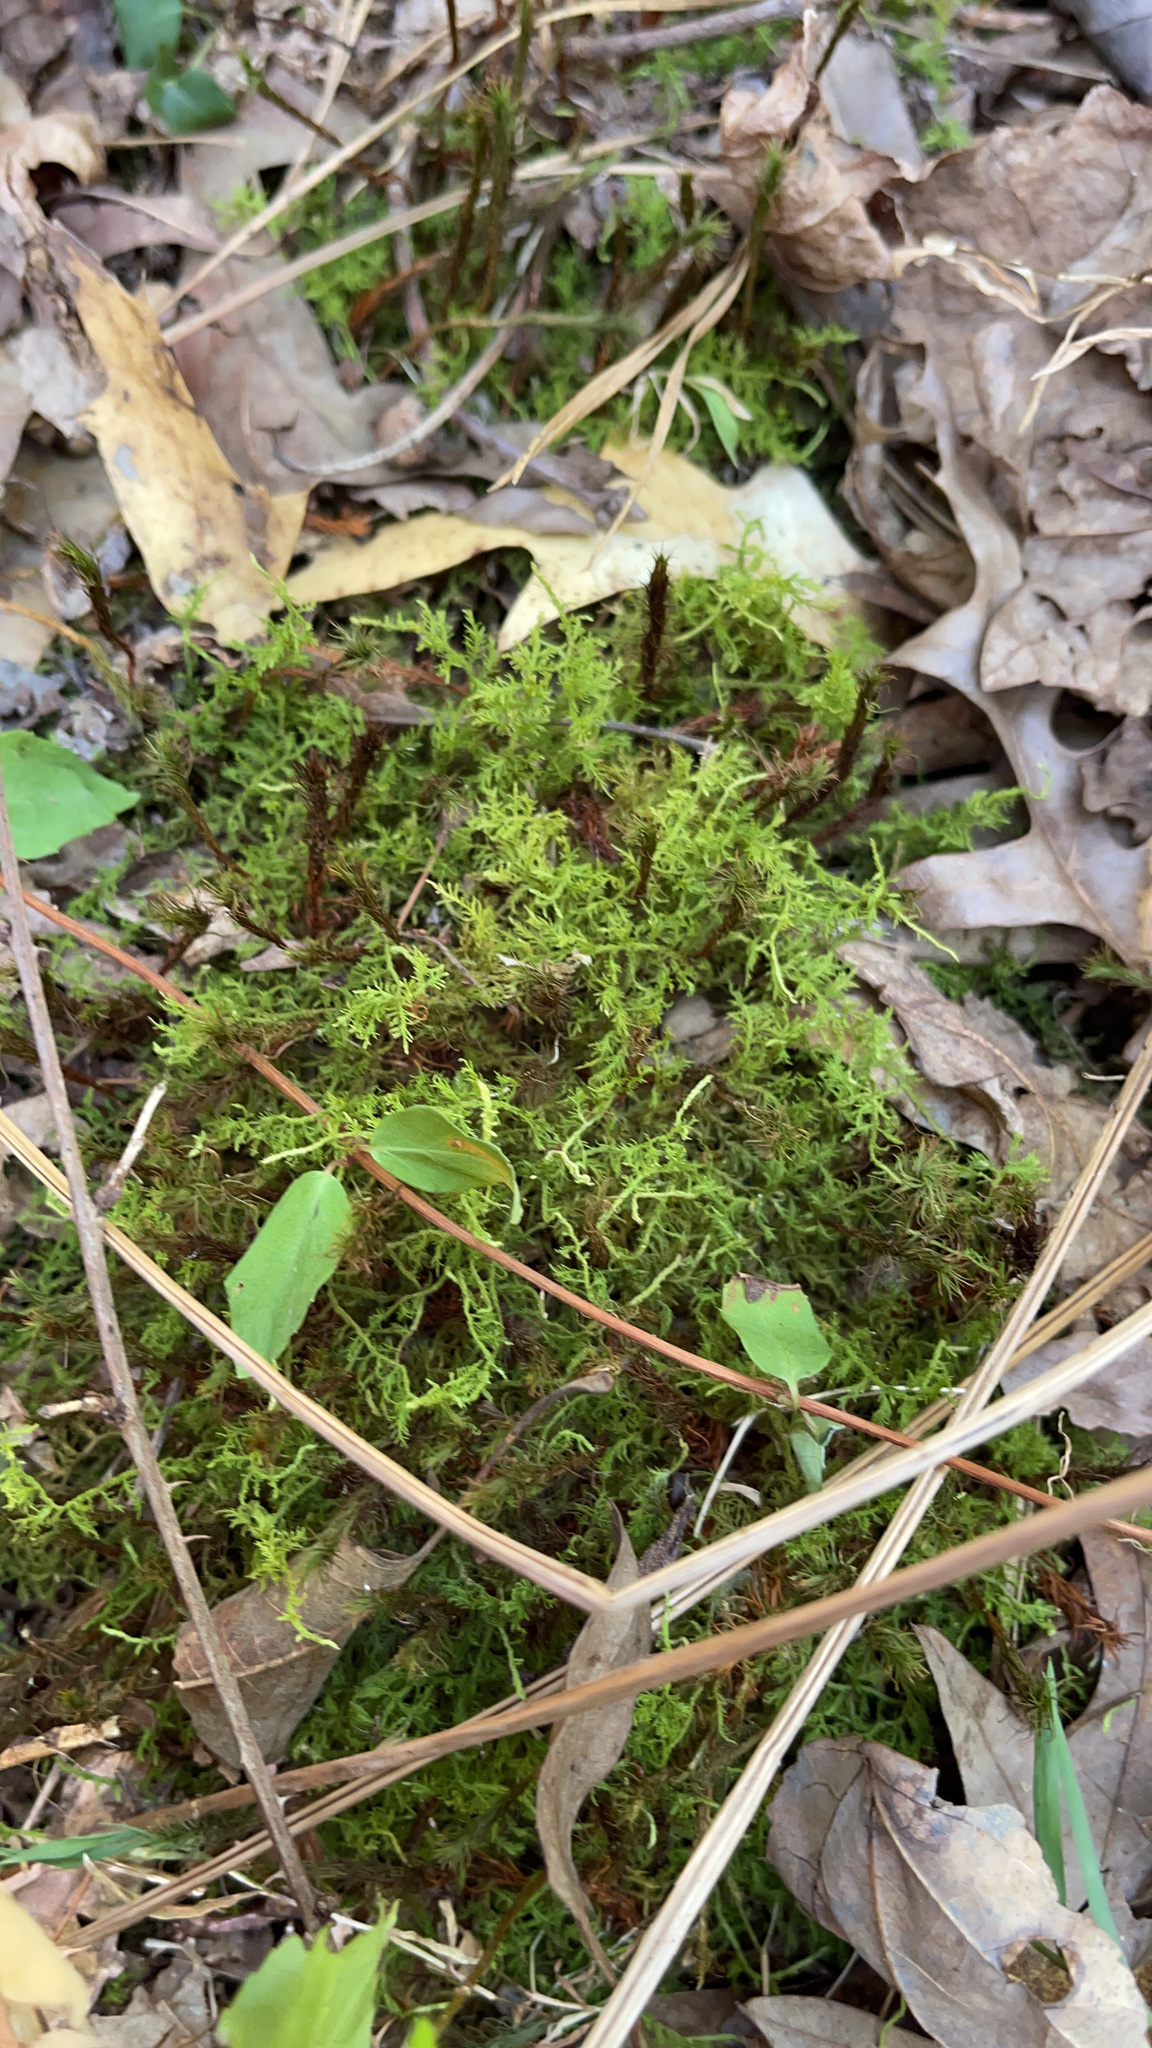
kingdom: Plantae
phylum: Bryophyta
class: Bryopsida
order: Hypnales
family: Thuidiaceae
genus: Thuidium
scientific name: Thuidium delicatulum
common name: Delicate fern moss
